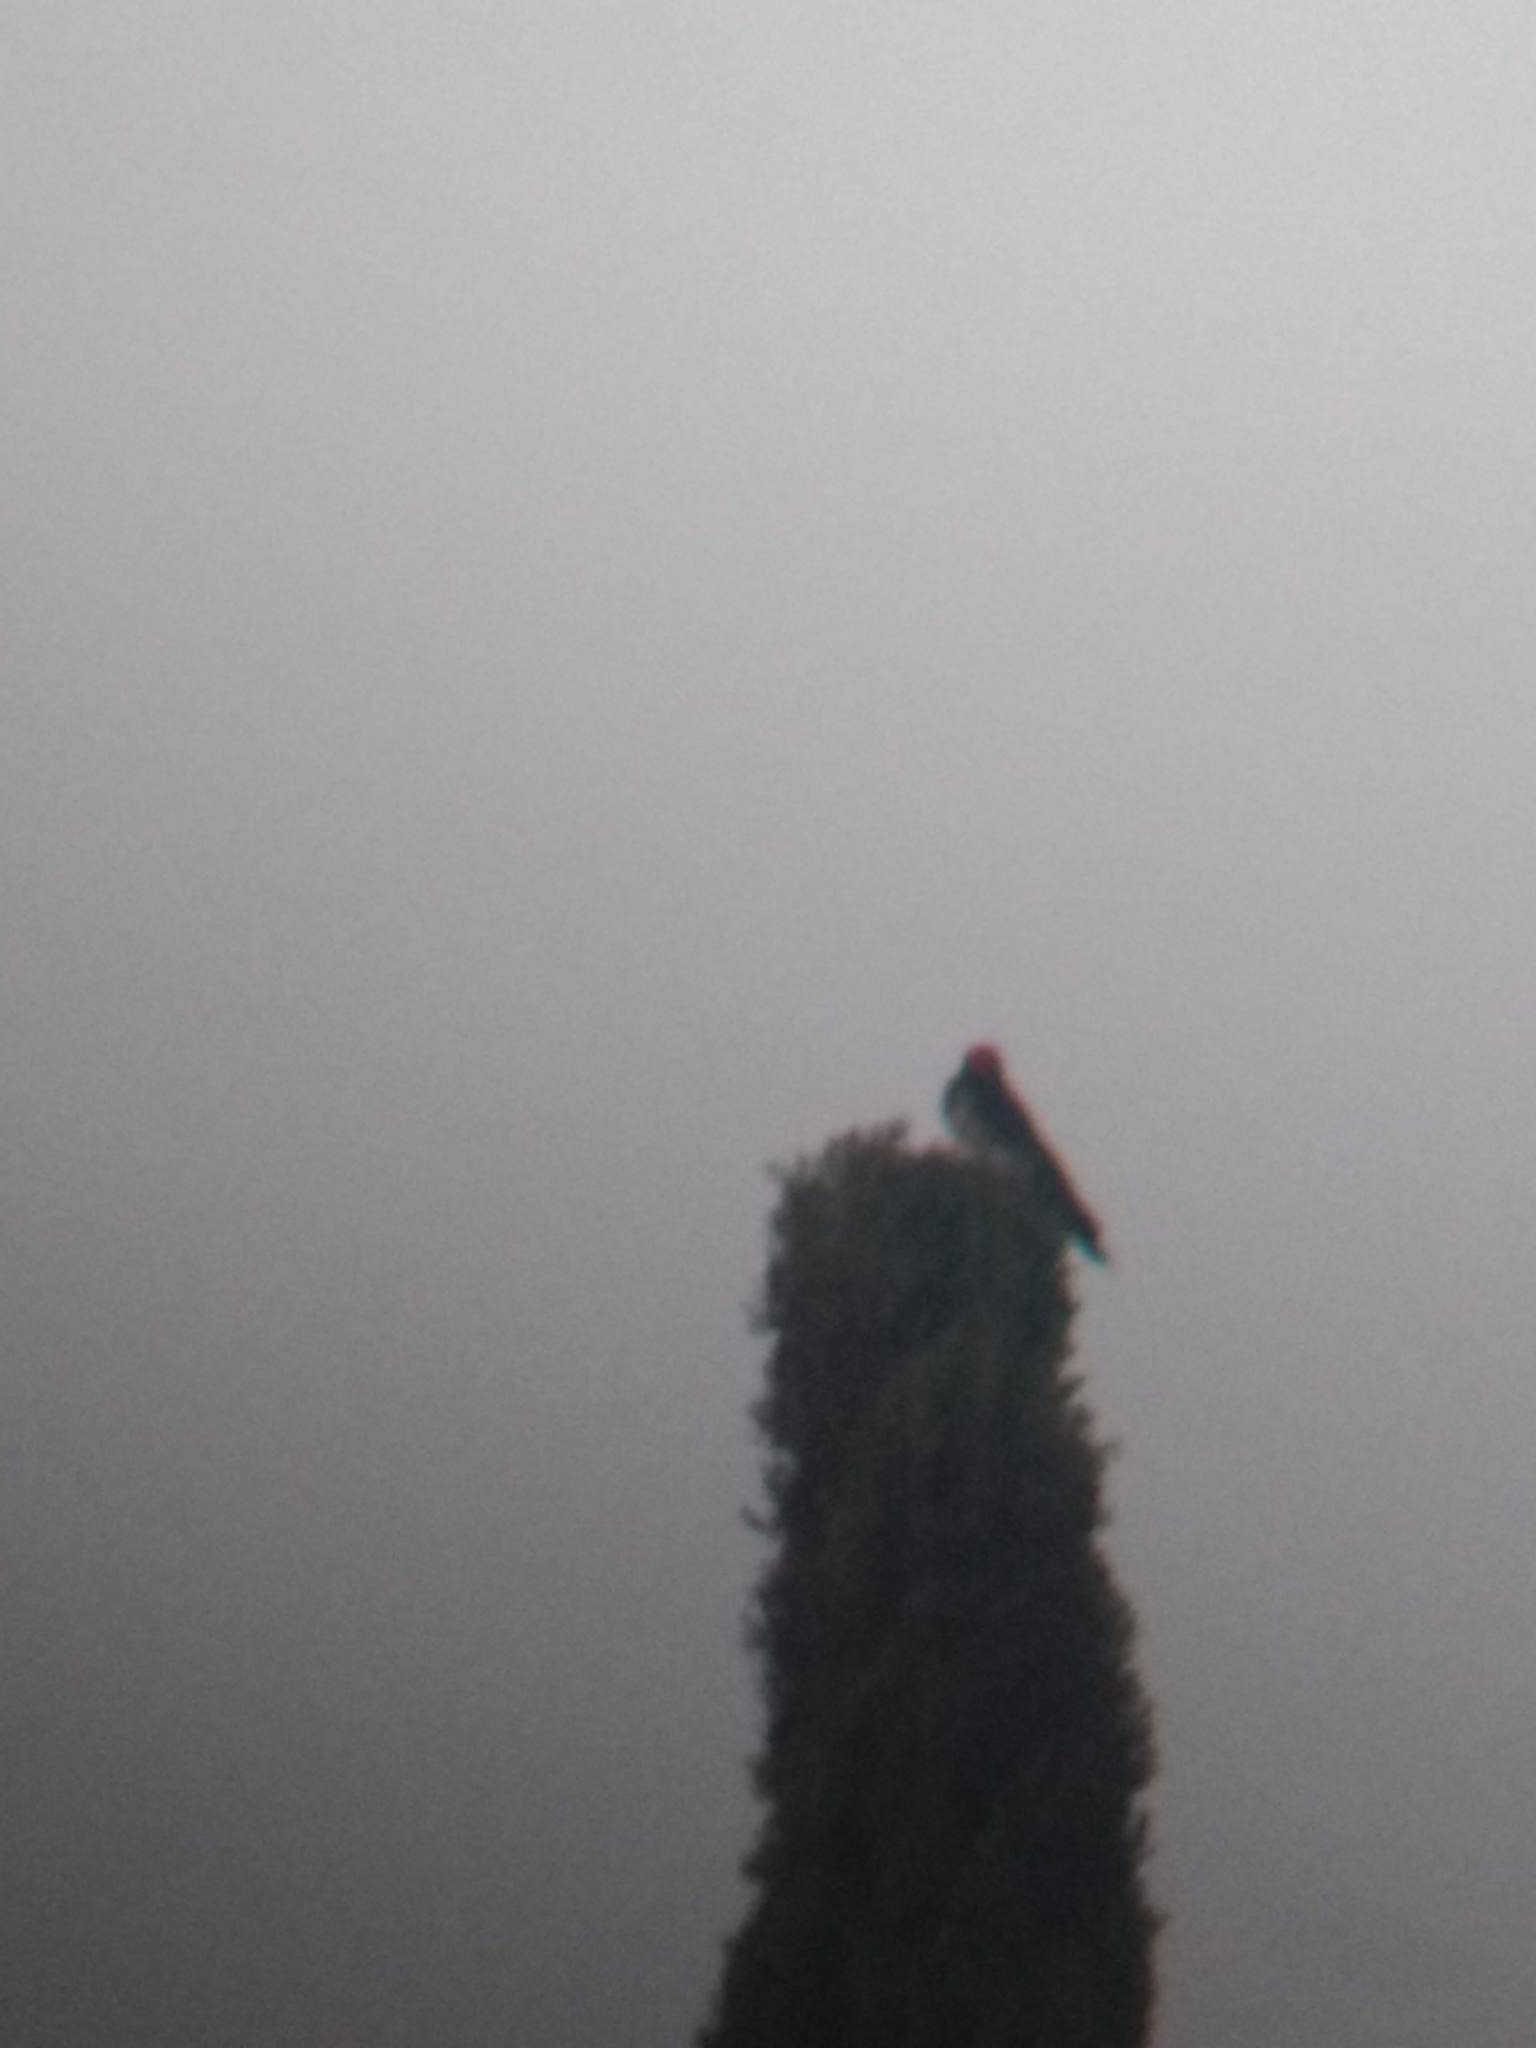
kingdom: Animalia
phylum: Chordata
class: Aves
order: Piciformes
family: Picidae
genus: Melanerpes
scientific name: Melanerpes formicivorus
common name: Acorn woodpecker
